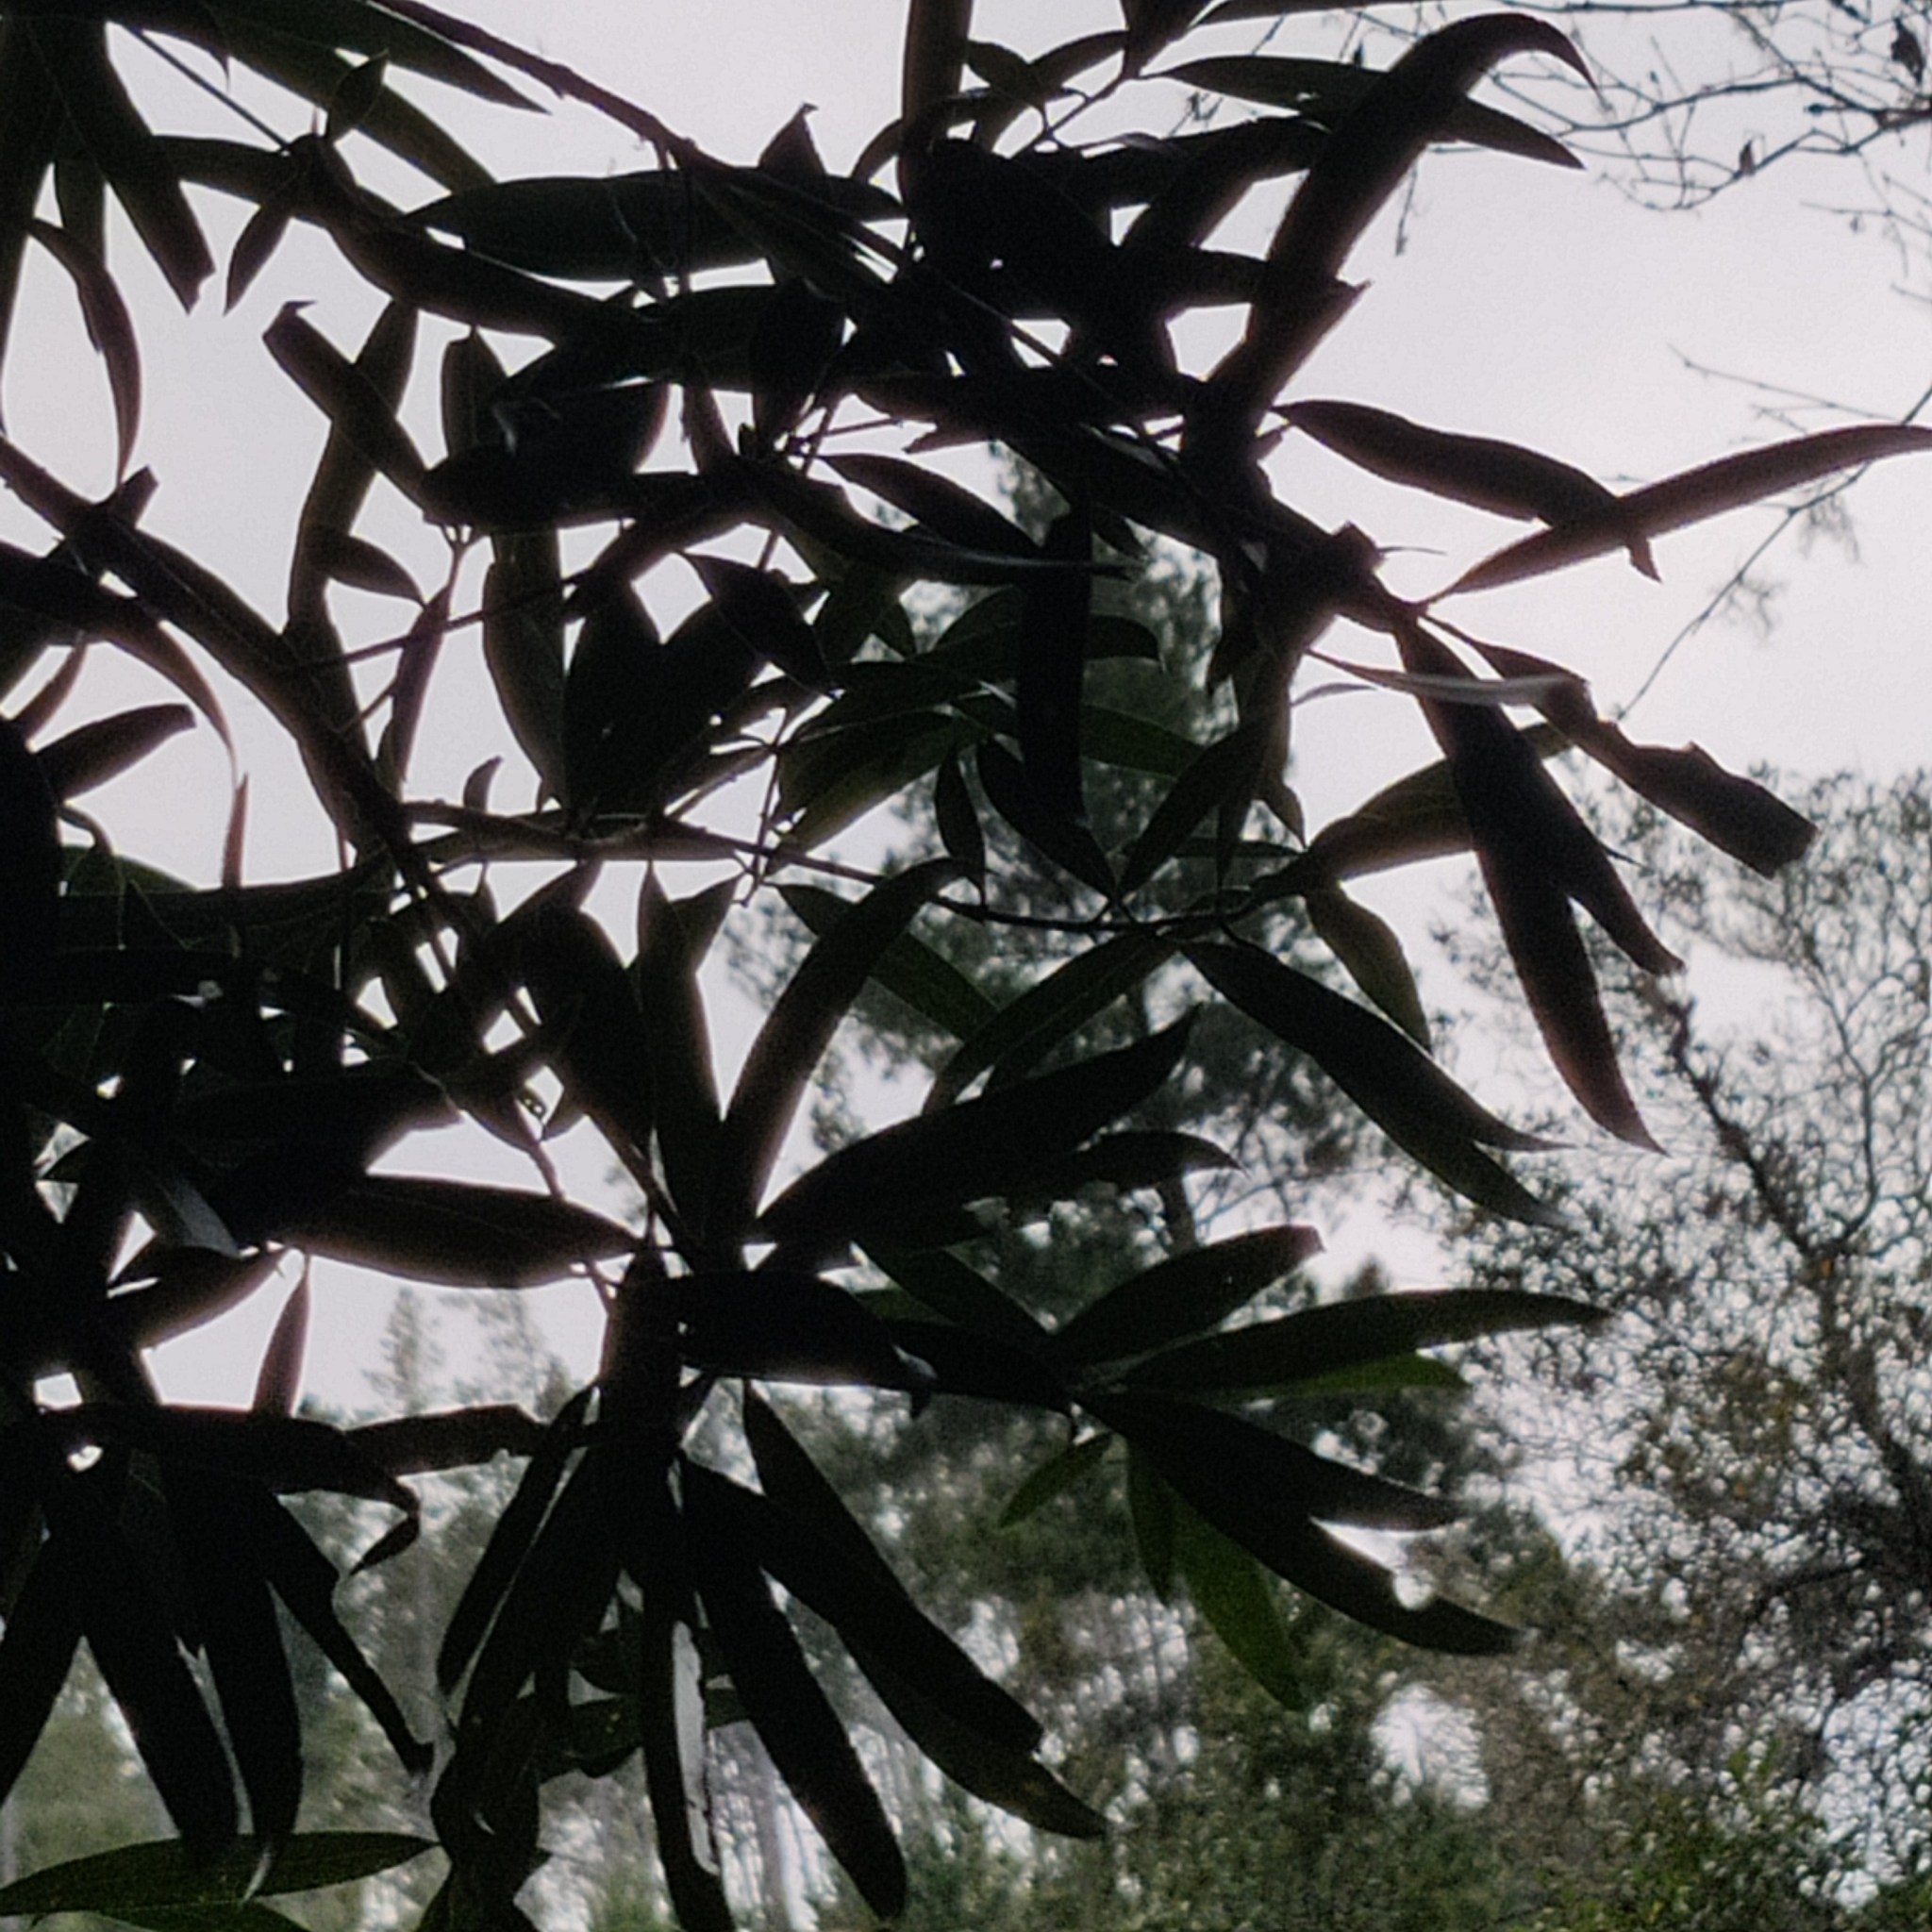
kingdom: Plantae
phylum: Tracheophyta
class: Magnoliopsida
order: Santalales
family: Nanodeaceae
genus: Mida
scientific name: Mida salicifolia
